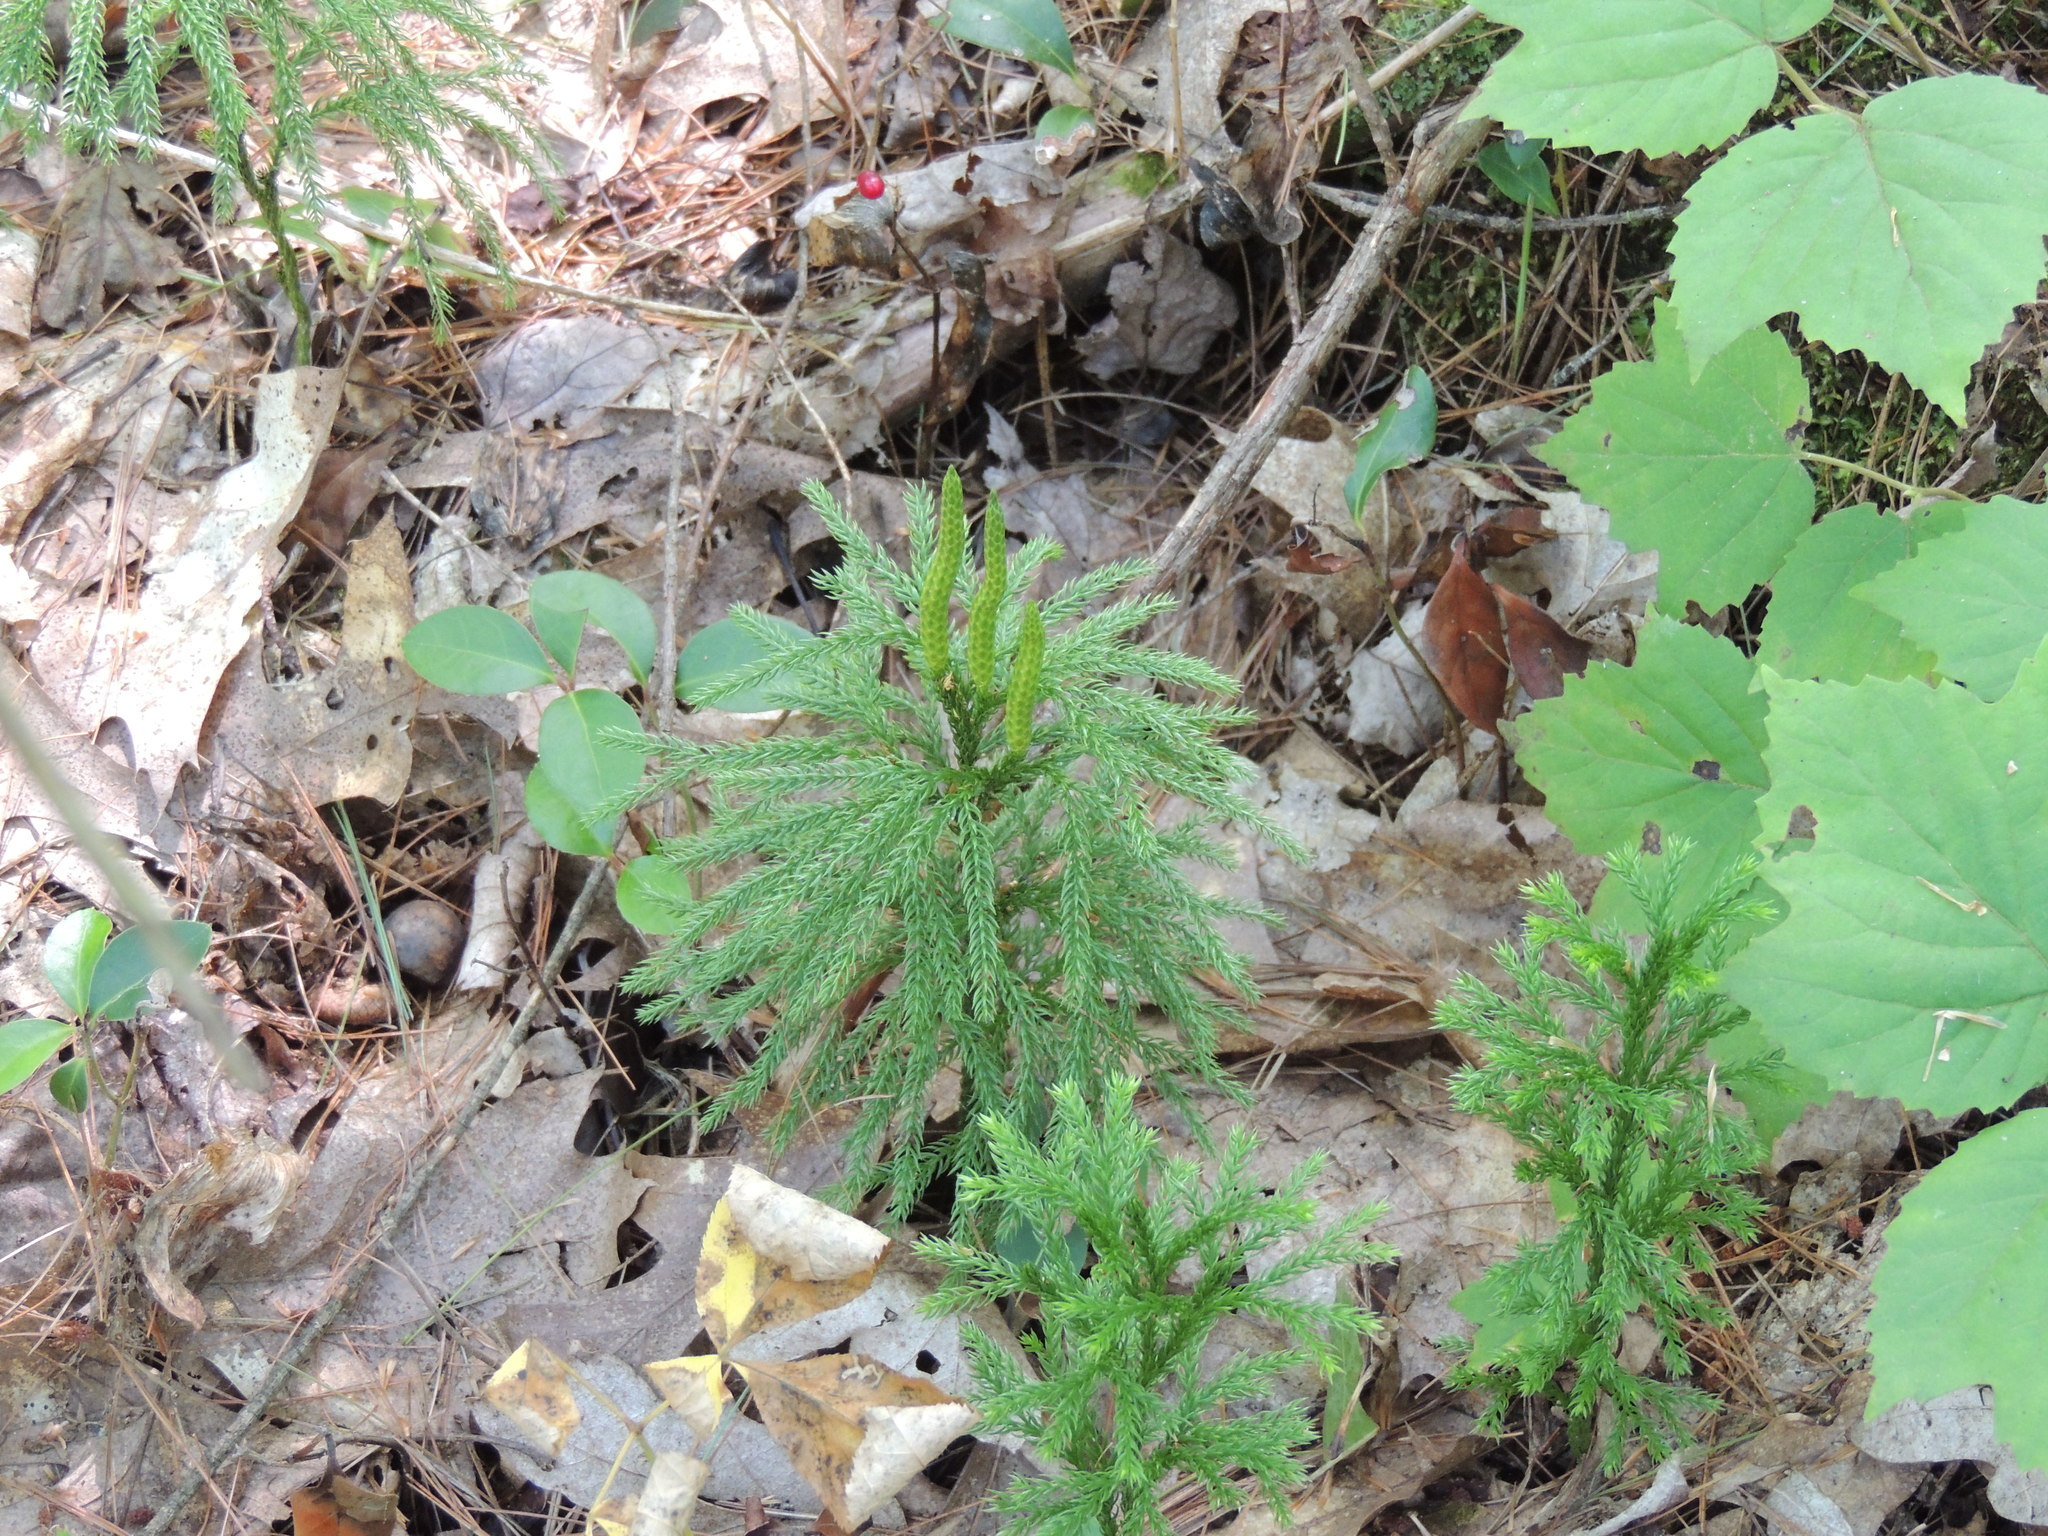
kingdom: Plantae
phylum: Tracheophyta
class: Lycopodiopsida
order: Lycopodiales
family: Lycopodiaceae
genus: Dendrolycopodium
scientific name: Dendrolycopodium hickeyi
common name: Hickey's clubmoss
